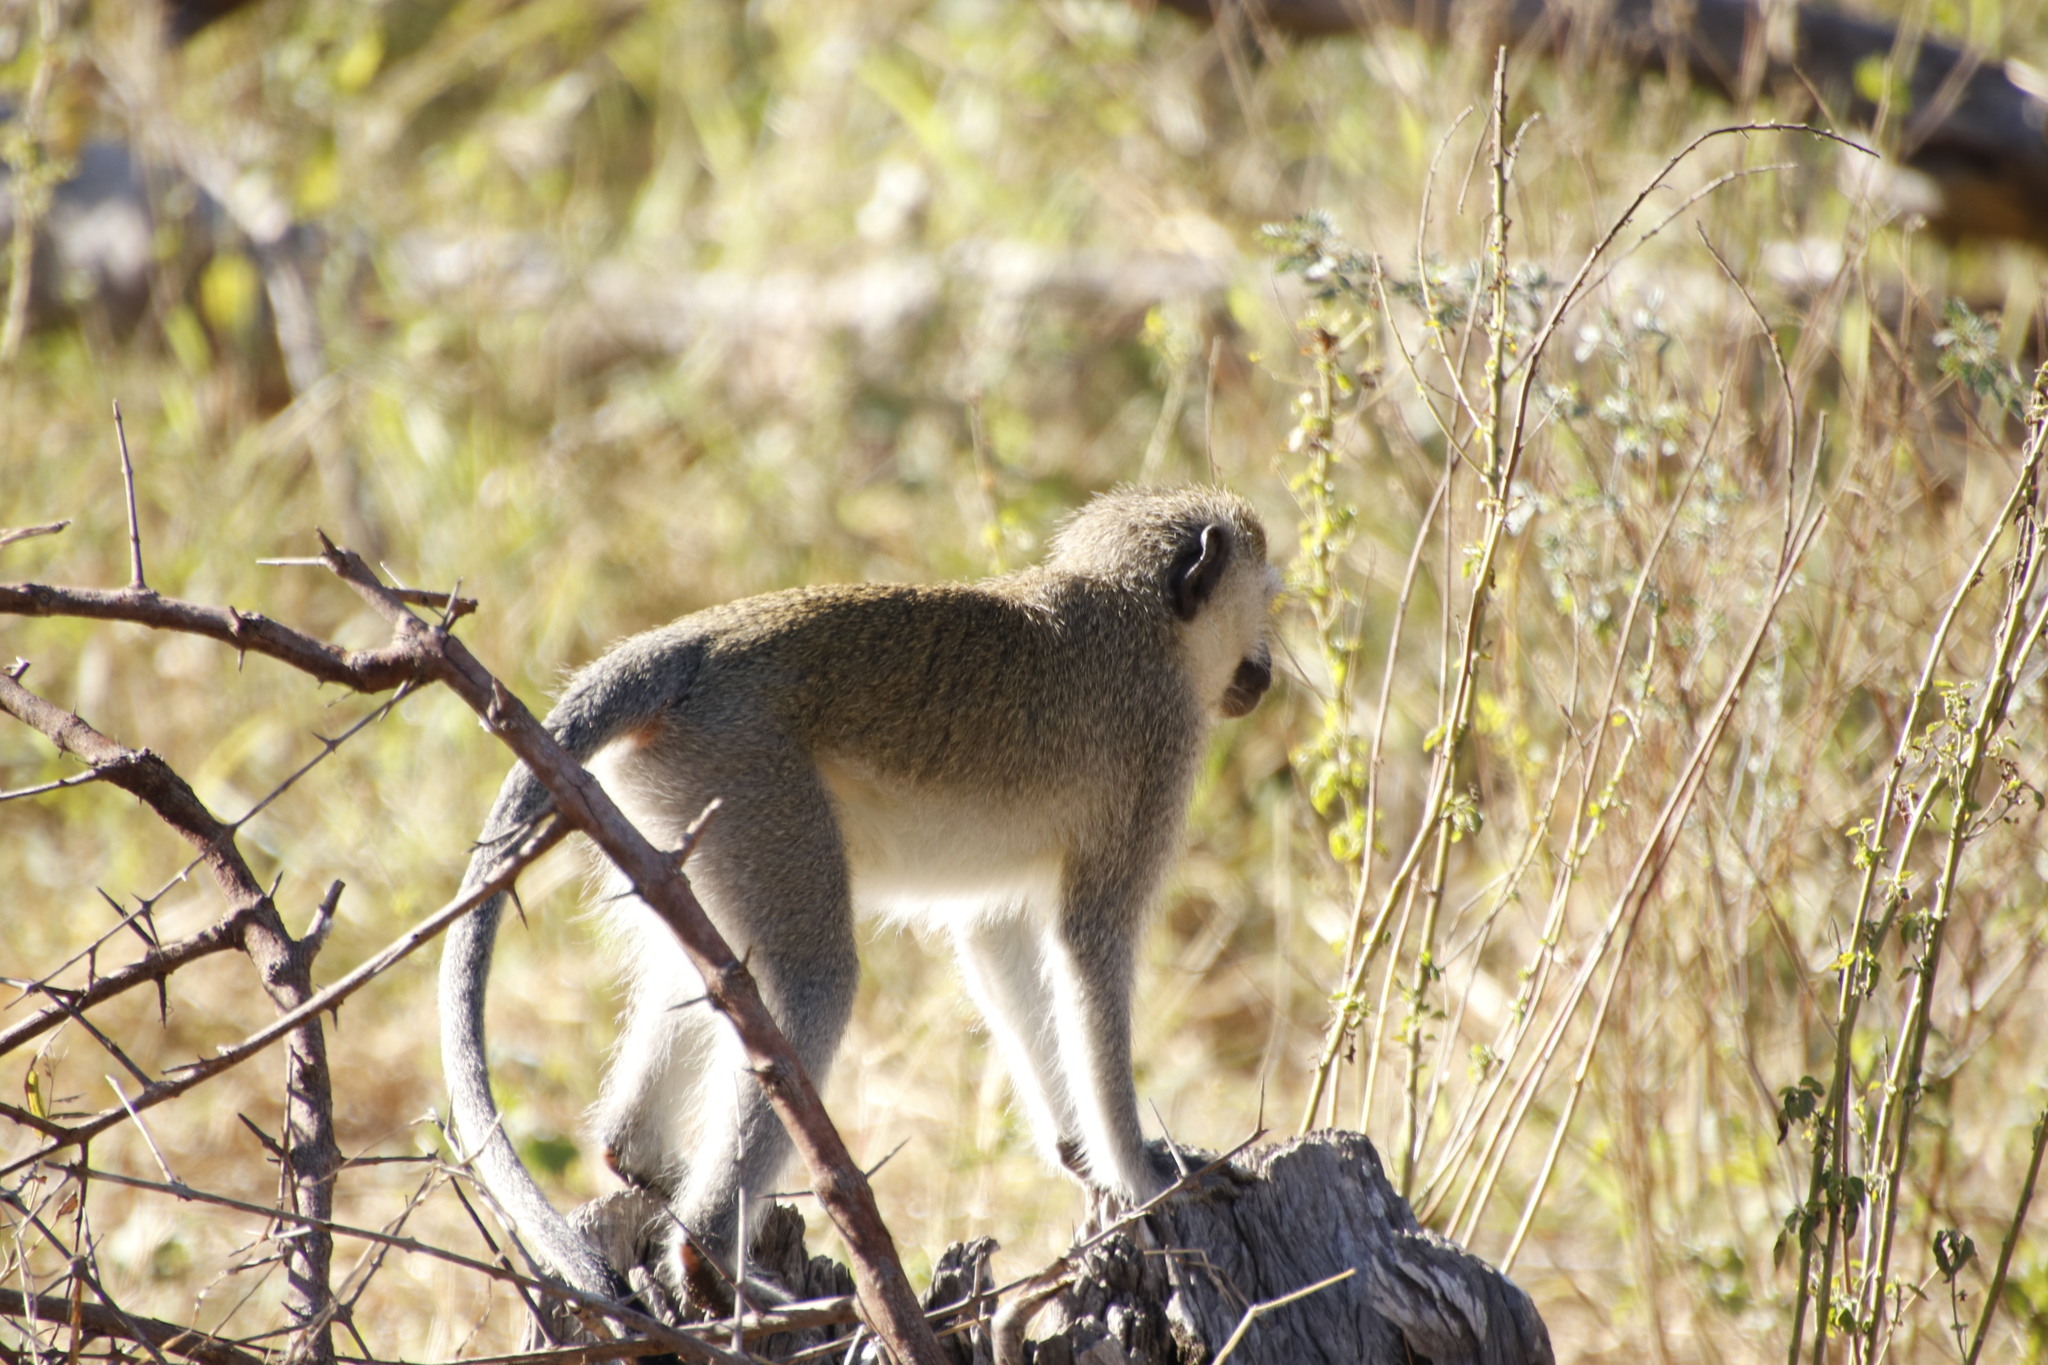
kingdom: Animalia
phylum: Chordata
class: Mammalia
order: Primates
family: Cercopithecidae
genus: Chlorocebus
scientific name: Chlorocebus pygerythrus
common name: Vervet monkey
